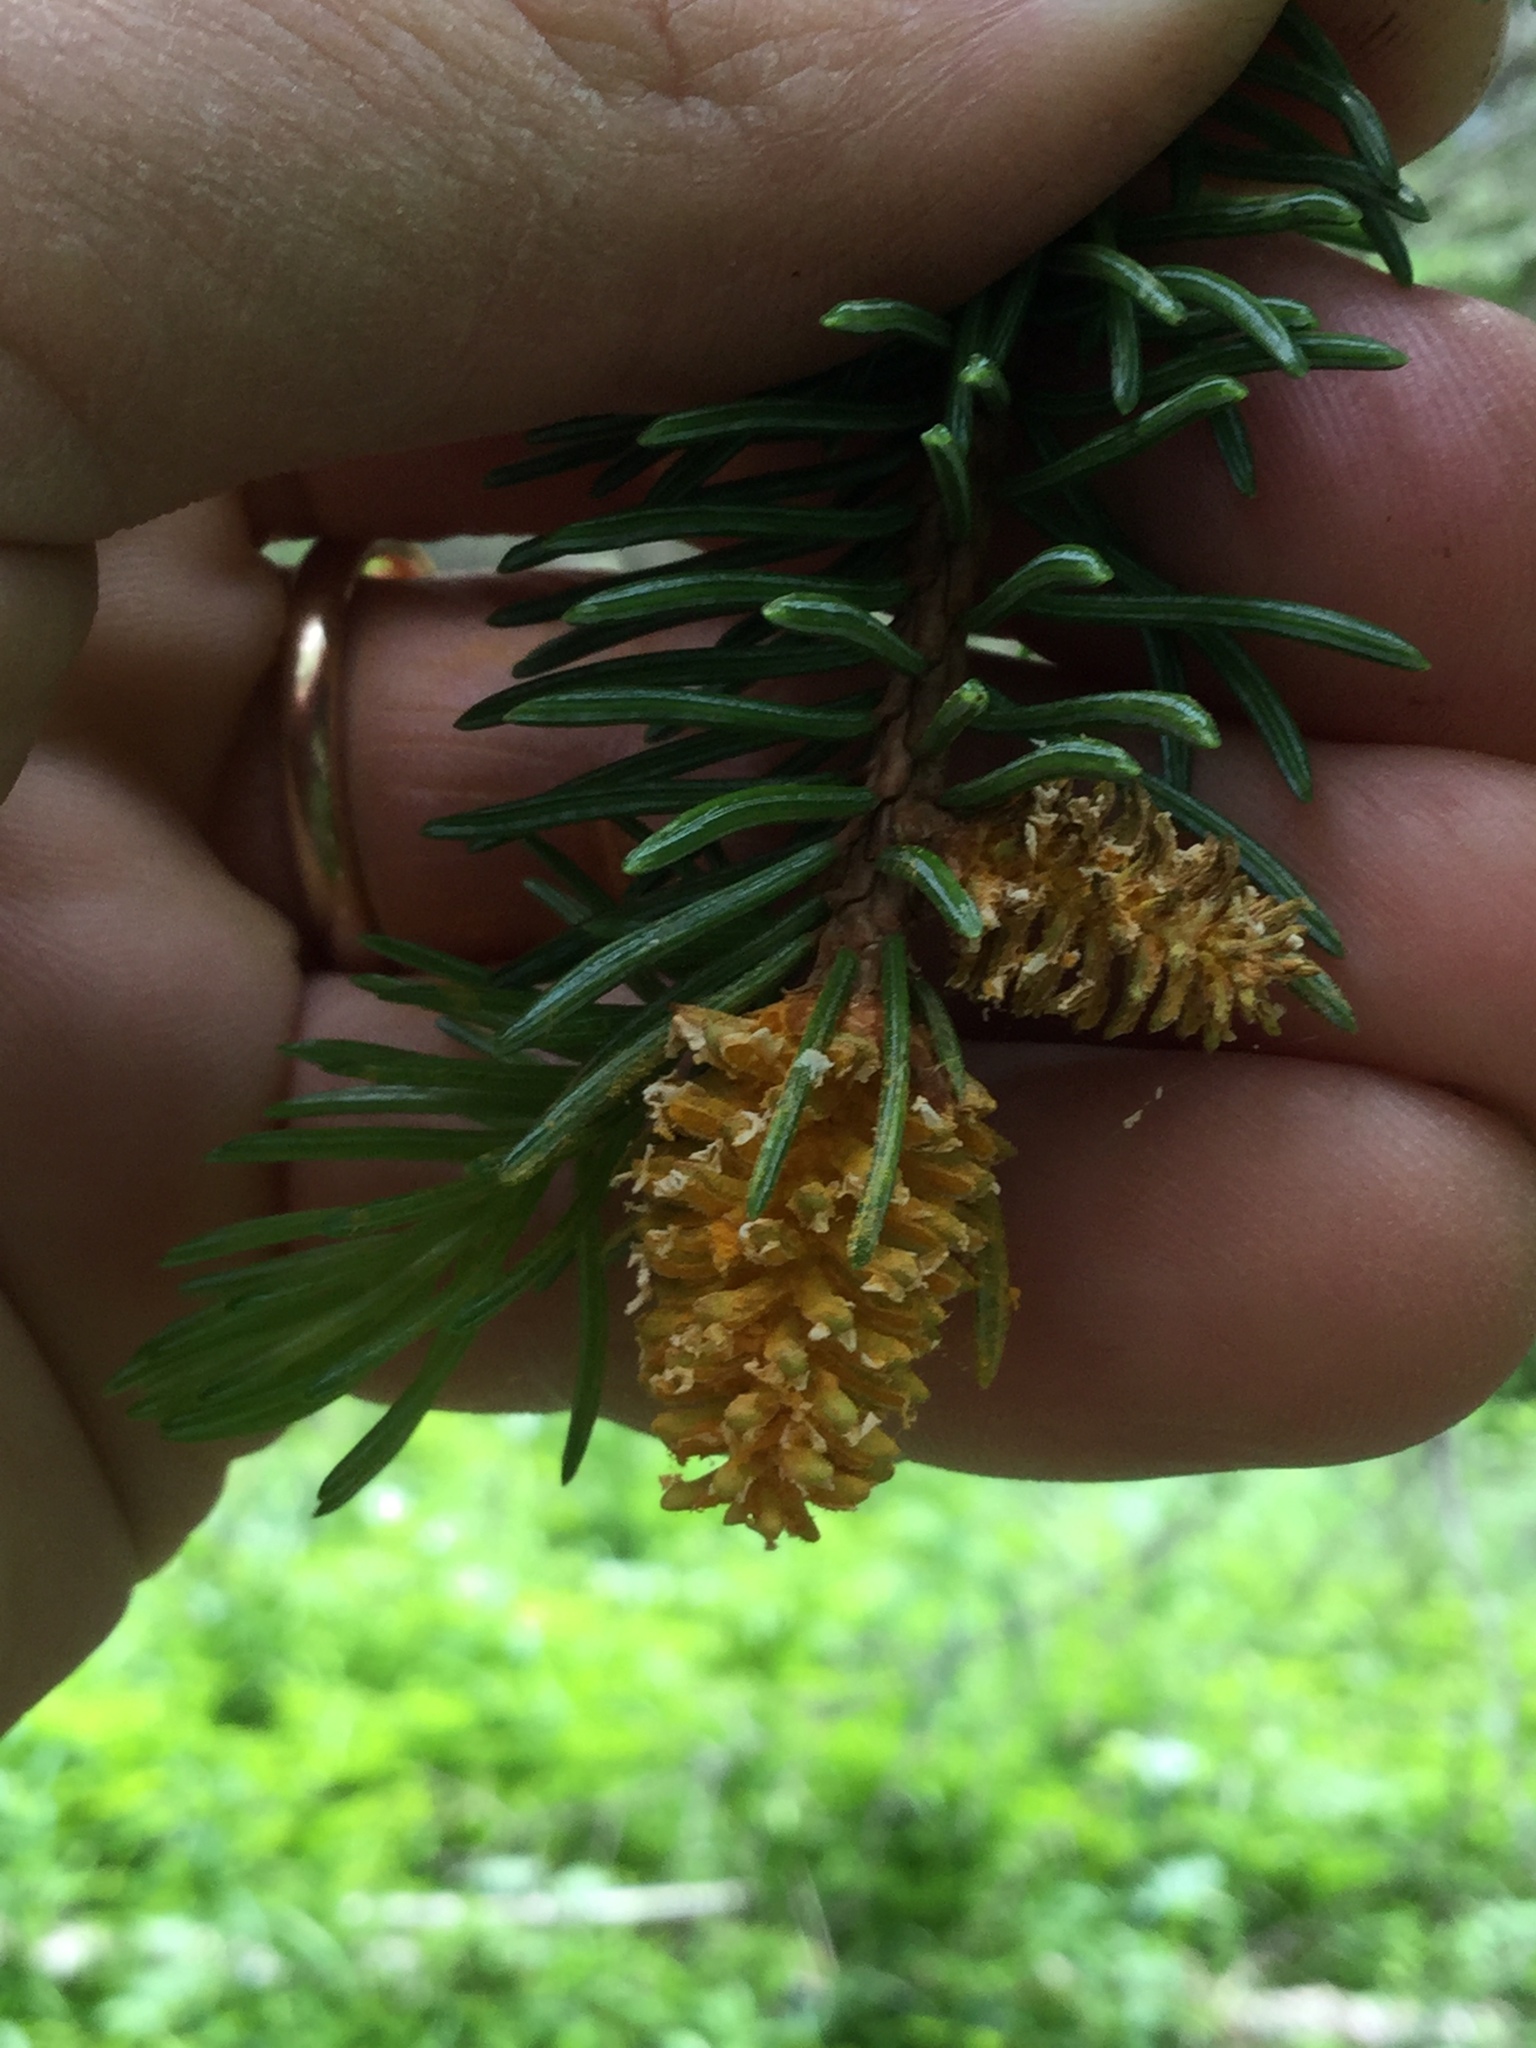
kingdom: Fungi
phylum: Basidiomycota
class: Pucciniomycetes
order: Pucciniales
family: Coleosporiaceae
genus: Chrysomyxa
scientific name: Chrysomyxa woroninii
